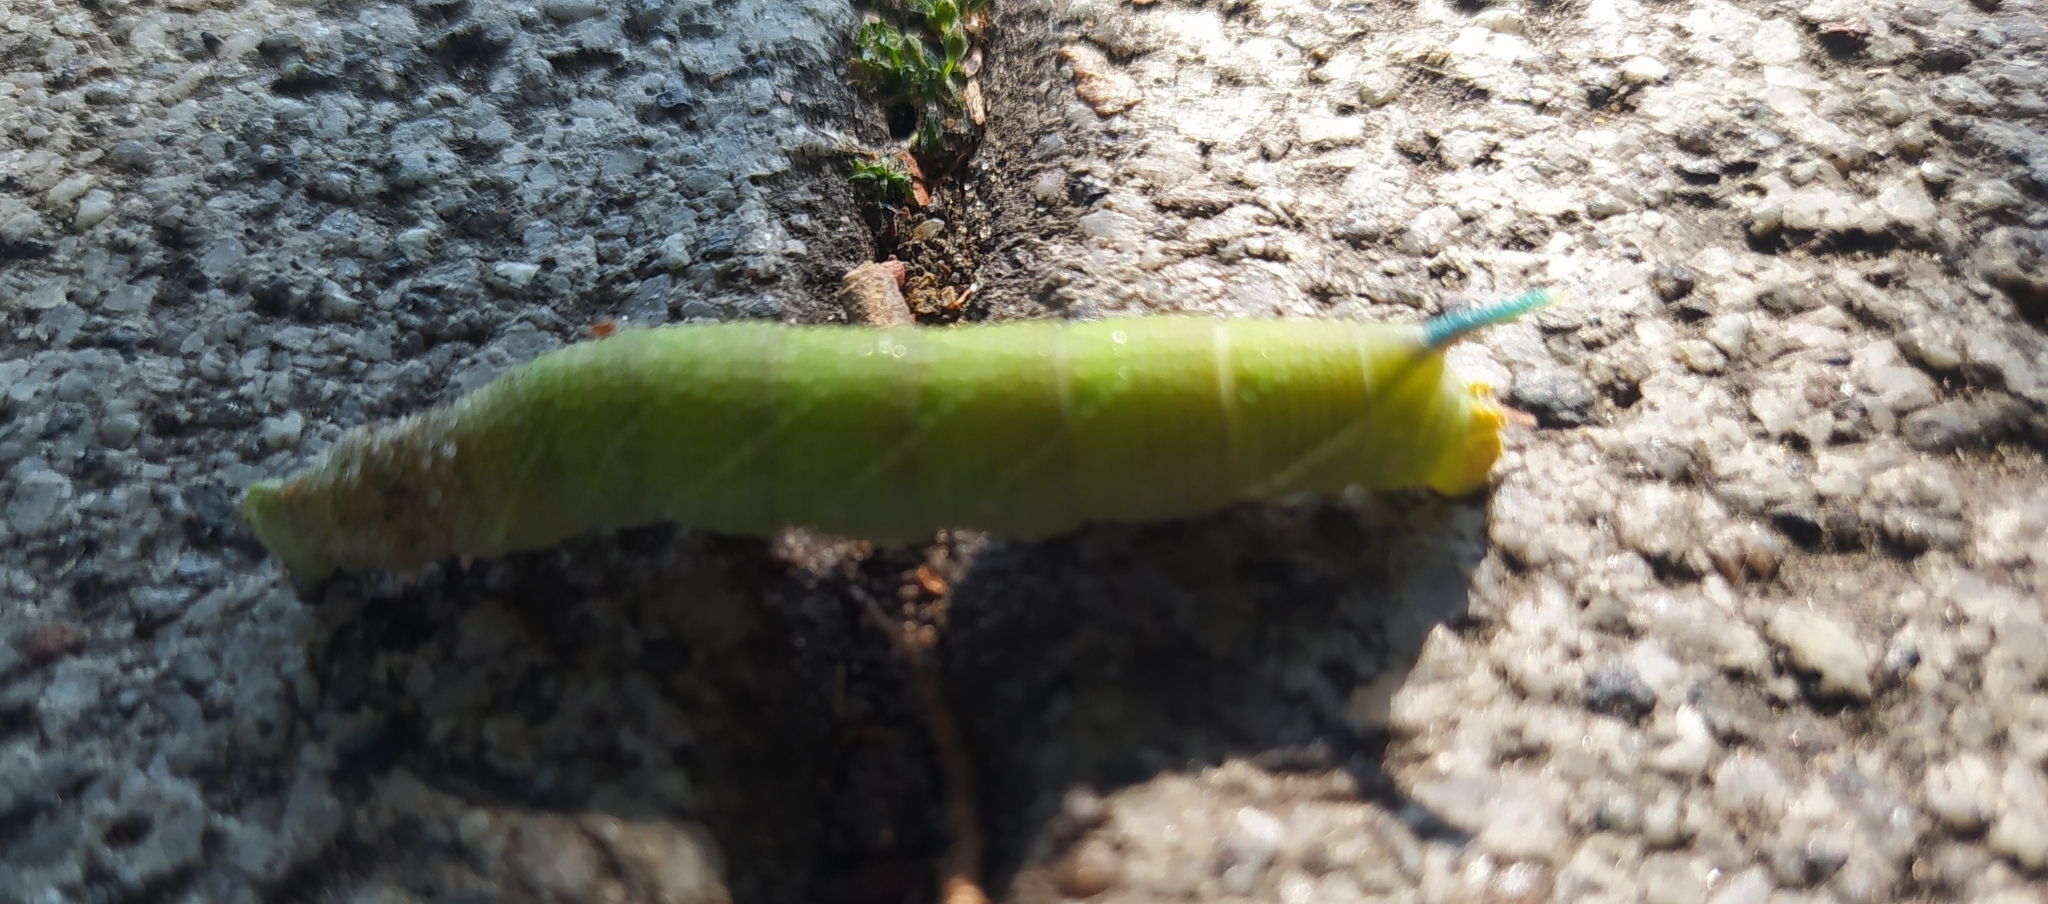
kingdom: Animalia
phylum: Arthropoda
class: Insecta
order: Lepidoptera
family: Sphingidae
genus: Mimas
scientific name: Mimas tiliae
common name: Lime hawk-moth
